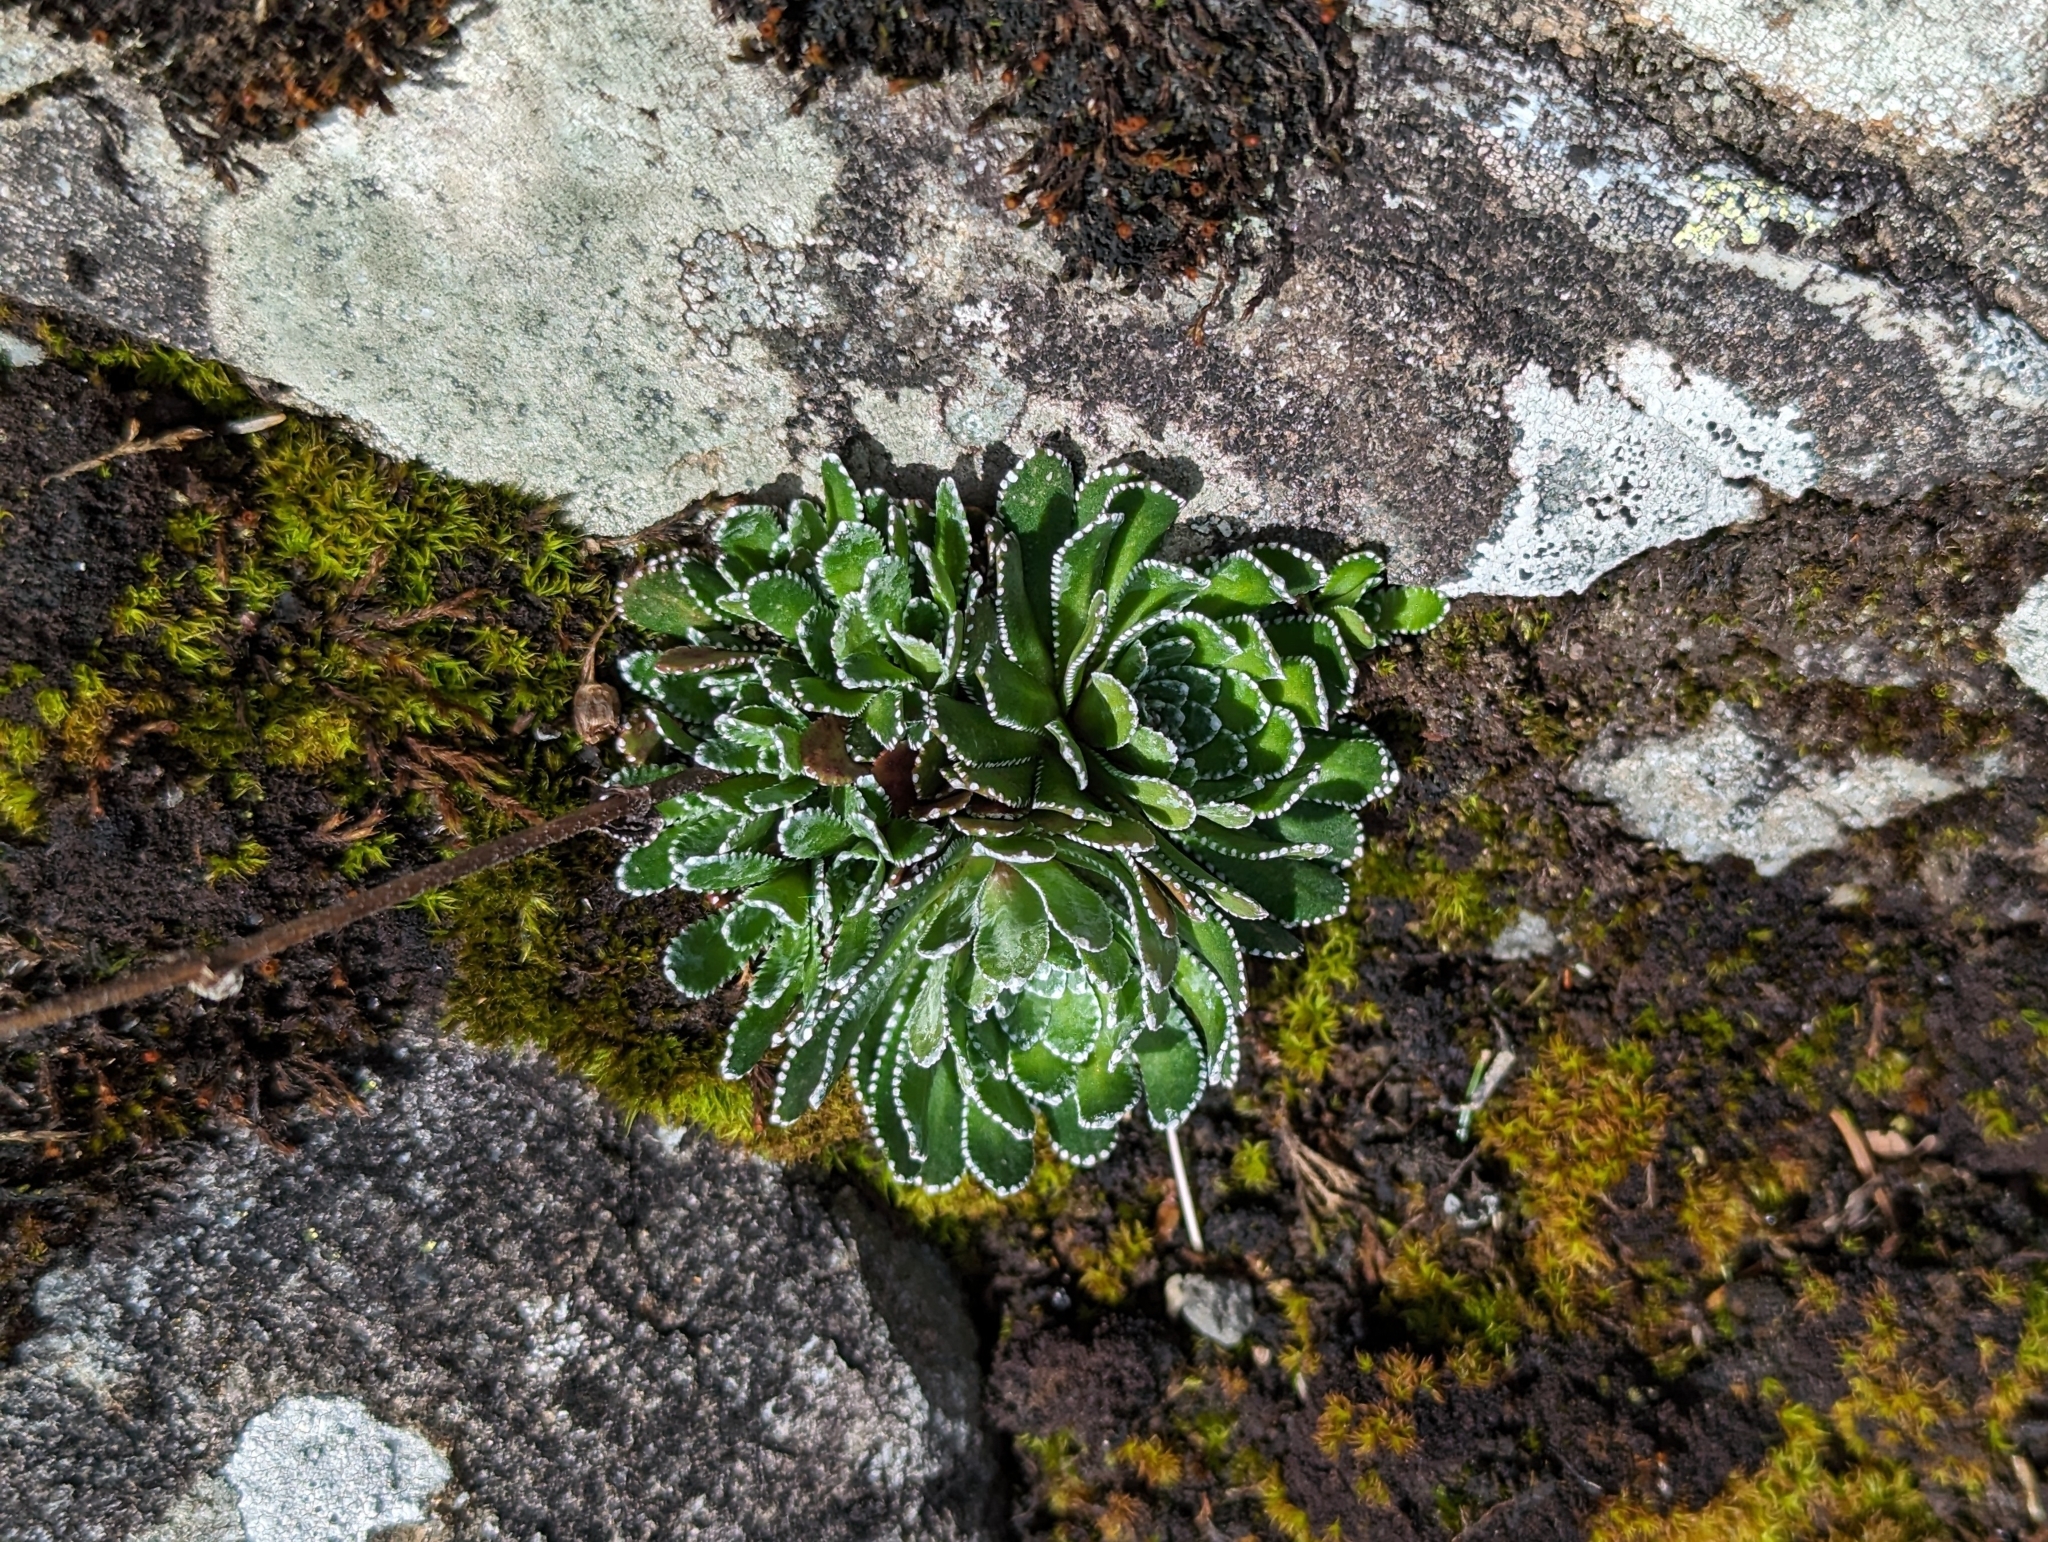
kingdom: Plantae
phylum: Tracheophyta
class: Magnoliopsida
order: Saxifragales
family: Saxifragaceae
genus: Saxifraga
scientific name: Saxifraga paniculata
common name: Livelong saxifrage
